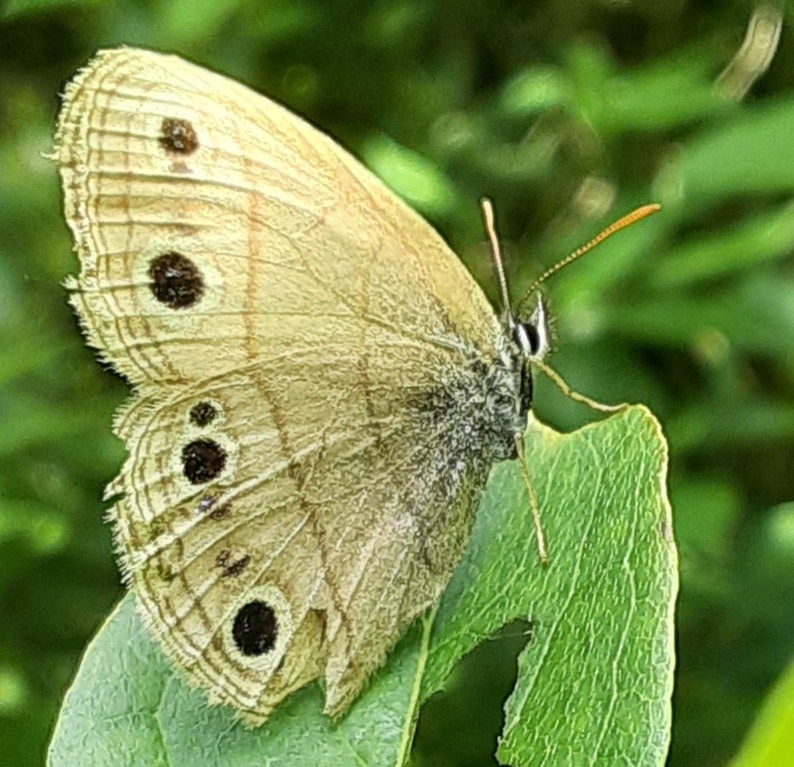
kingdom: Animalia
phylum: Arthropoda
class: Insecta
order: Lepidoptera
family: Nymphalidae
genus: Euptychia
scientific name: Euptychia cymela
